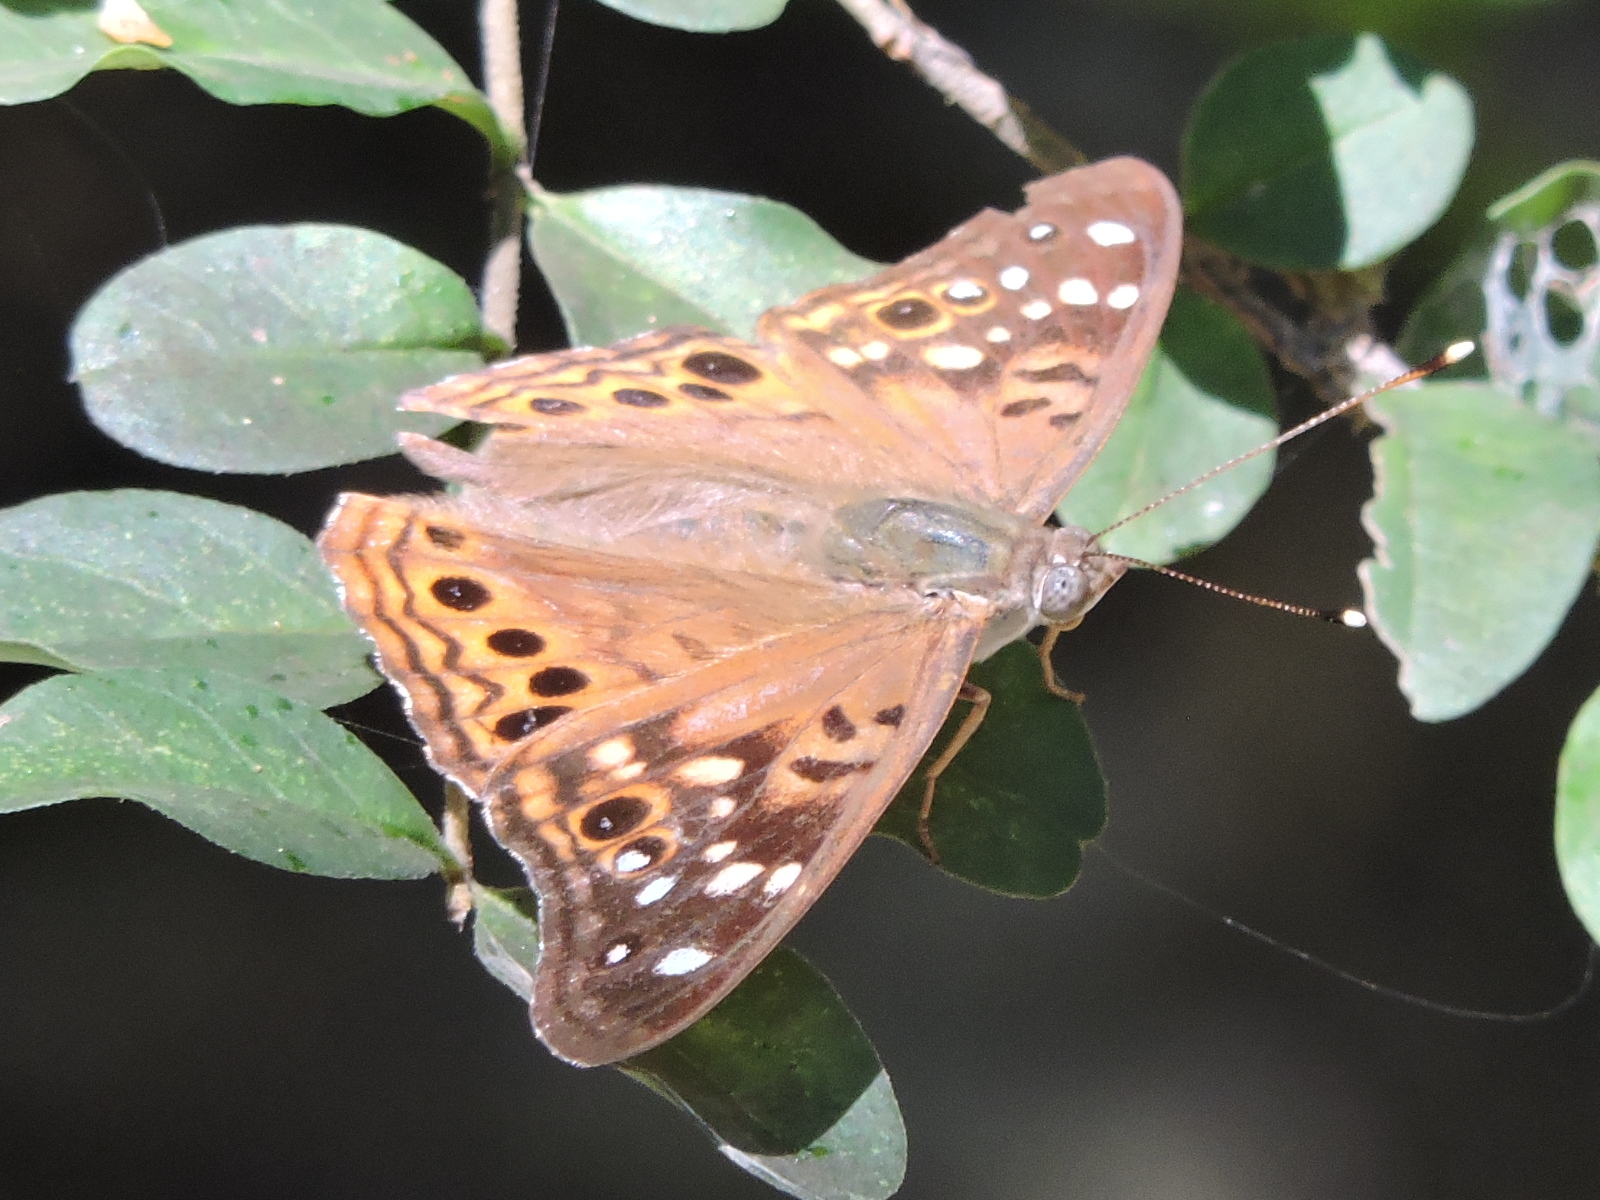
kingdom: Animalia
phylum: Arthropoda
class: Insecta
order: Lepidoptera
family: Nymphalidae
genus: Asterocampa
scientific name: Asterocampa celtis
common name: Hackberry emperor
